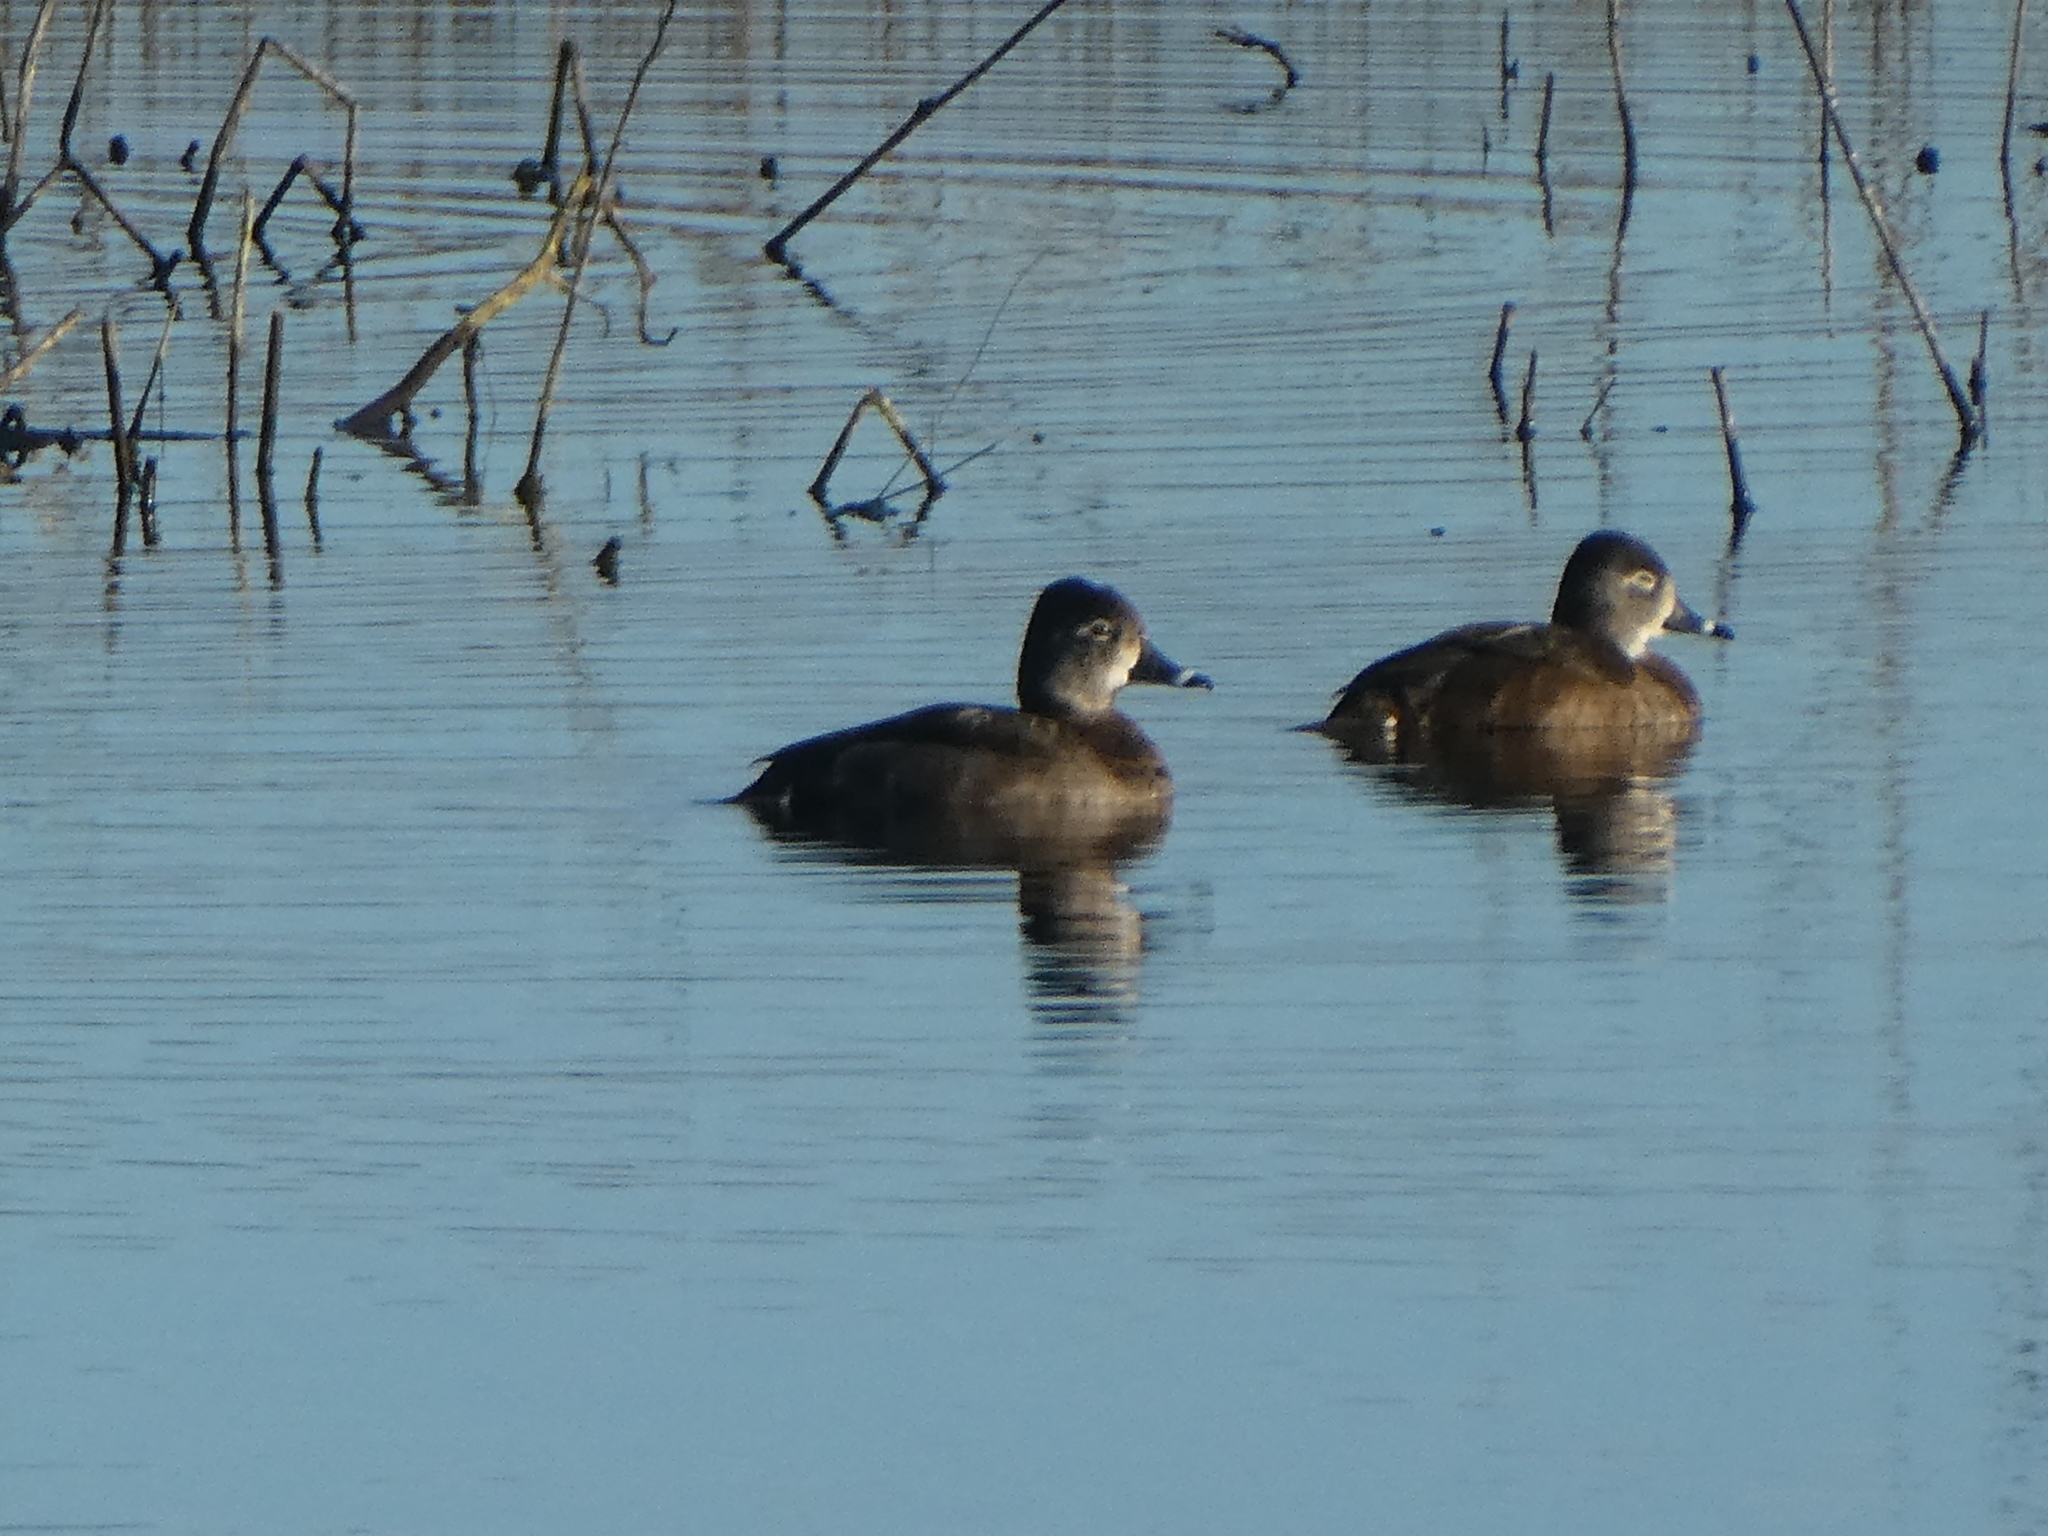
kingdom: Animalia
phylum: Chordata
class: Aves
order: Anseriformes
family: Anatidae
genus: Aythya
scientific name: Aythya collaris
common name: Ring-necked duck
